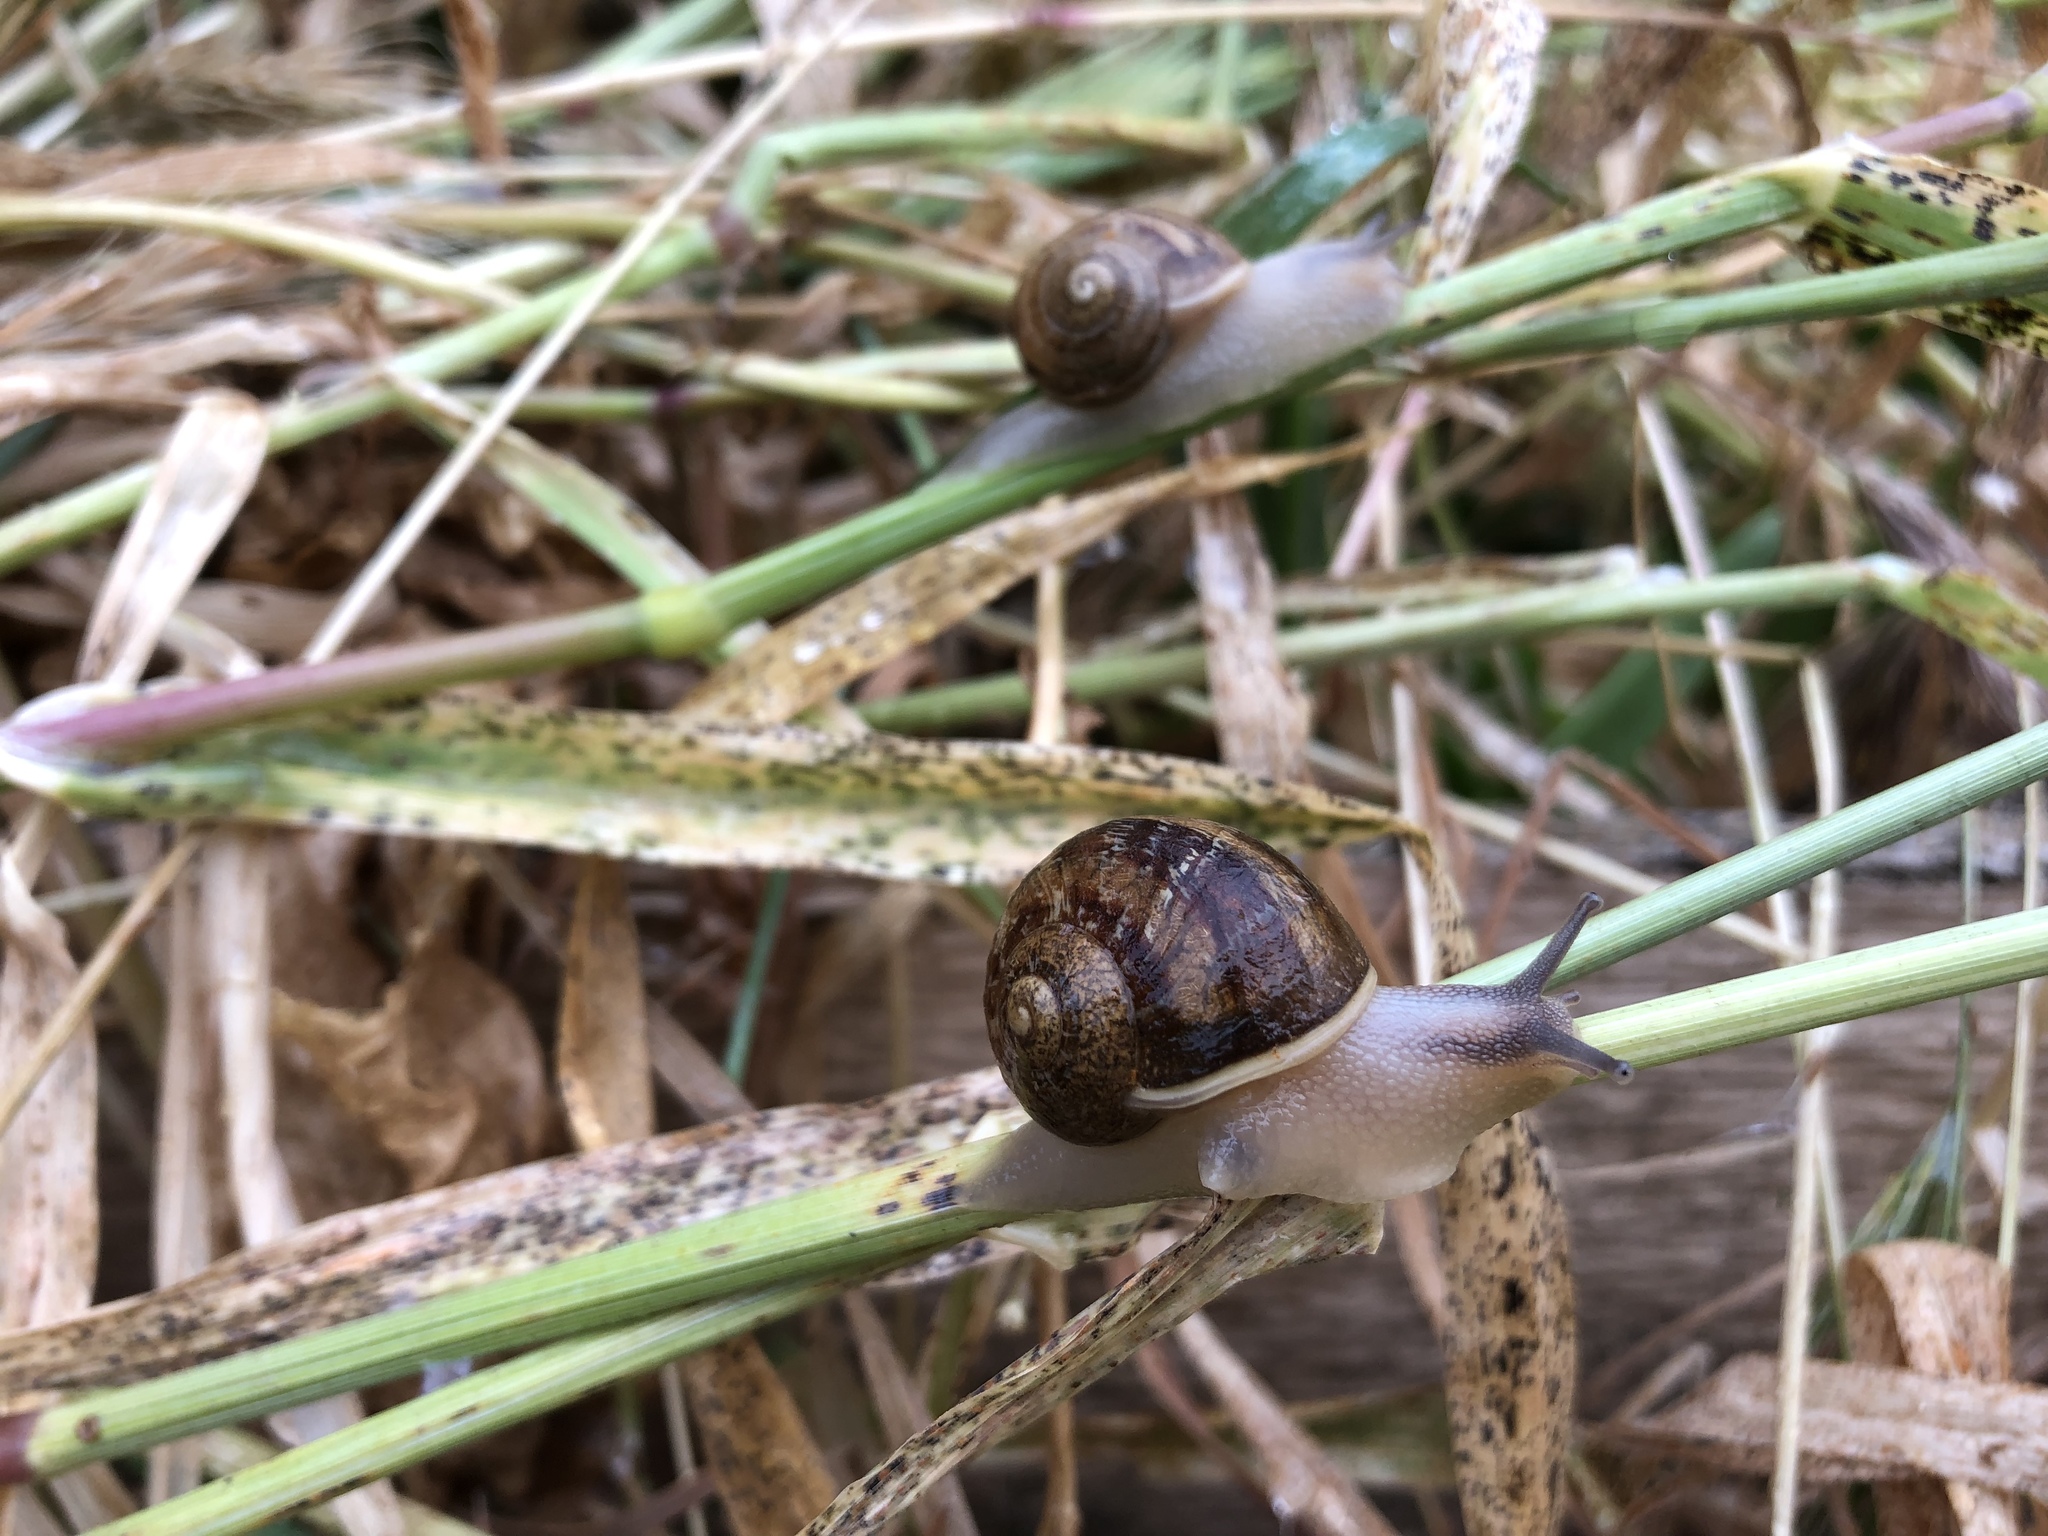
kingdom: Animalia
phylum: Mollusca
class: Gastropoda
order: Stylommatophora
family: Helicidae
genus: Cornu
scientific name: Cornu aspersum
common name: Brown garden snail
